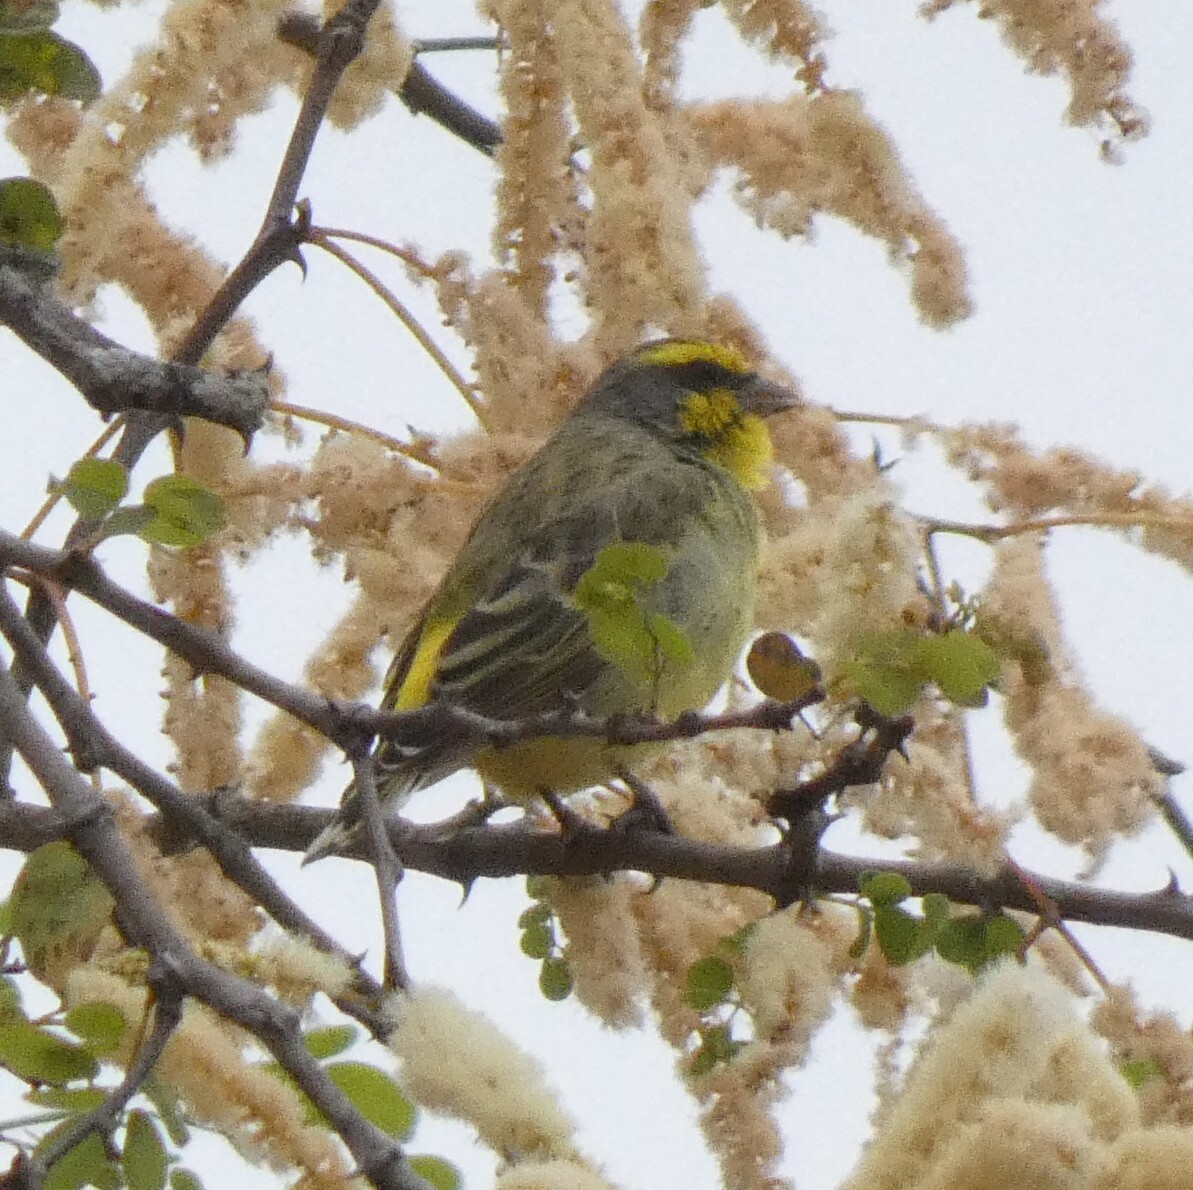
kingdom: Animalia
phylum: Chordata
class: Aves
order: Passeriformes
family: Fringillidae
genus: Crithagra
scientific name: Crithagra mozambica
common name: Yellow-fronted canary
